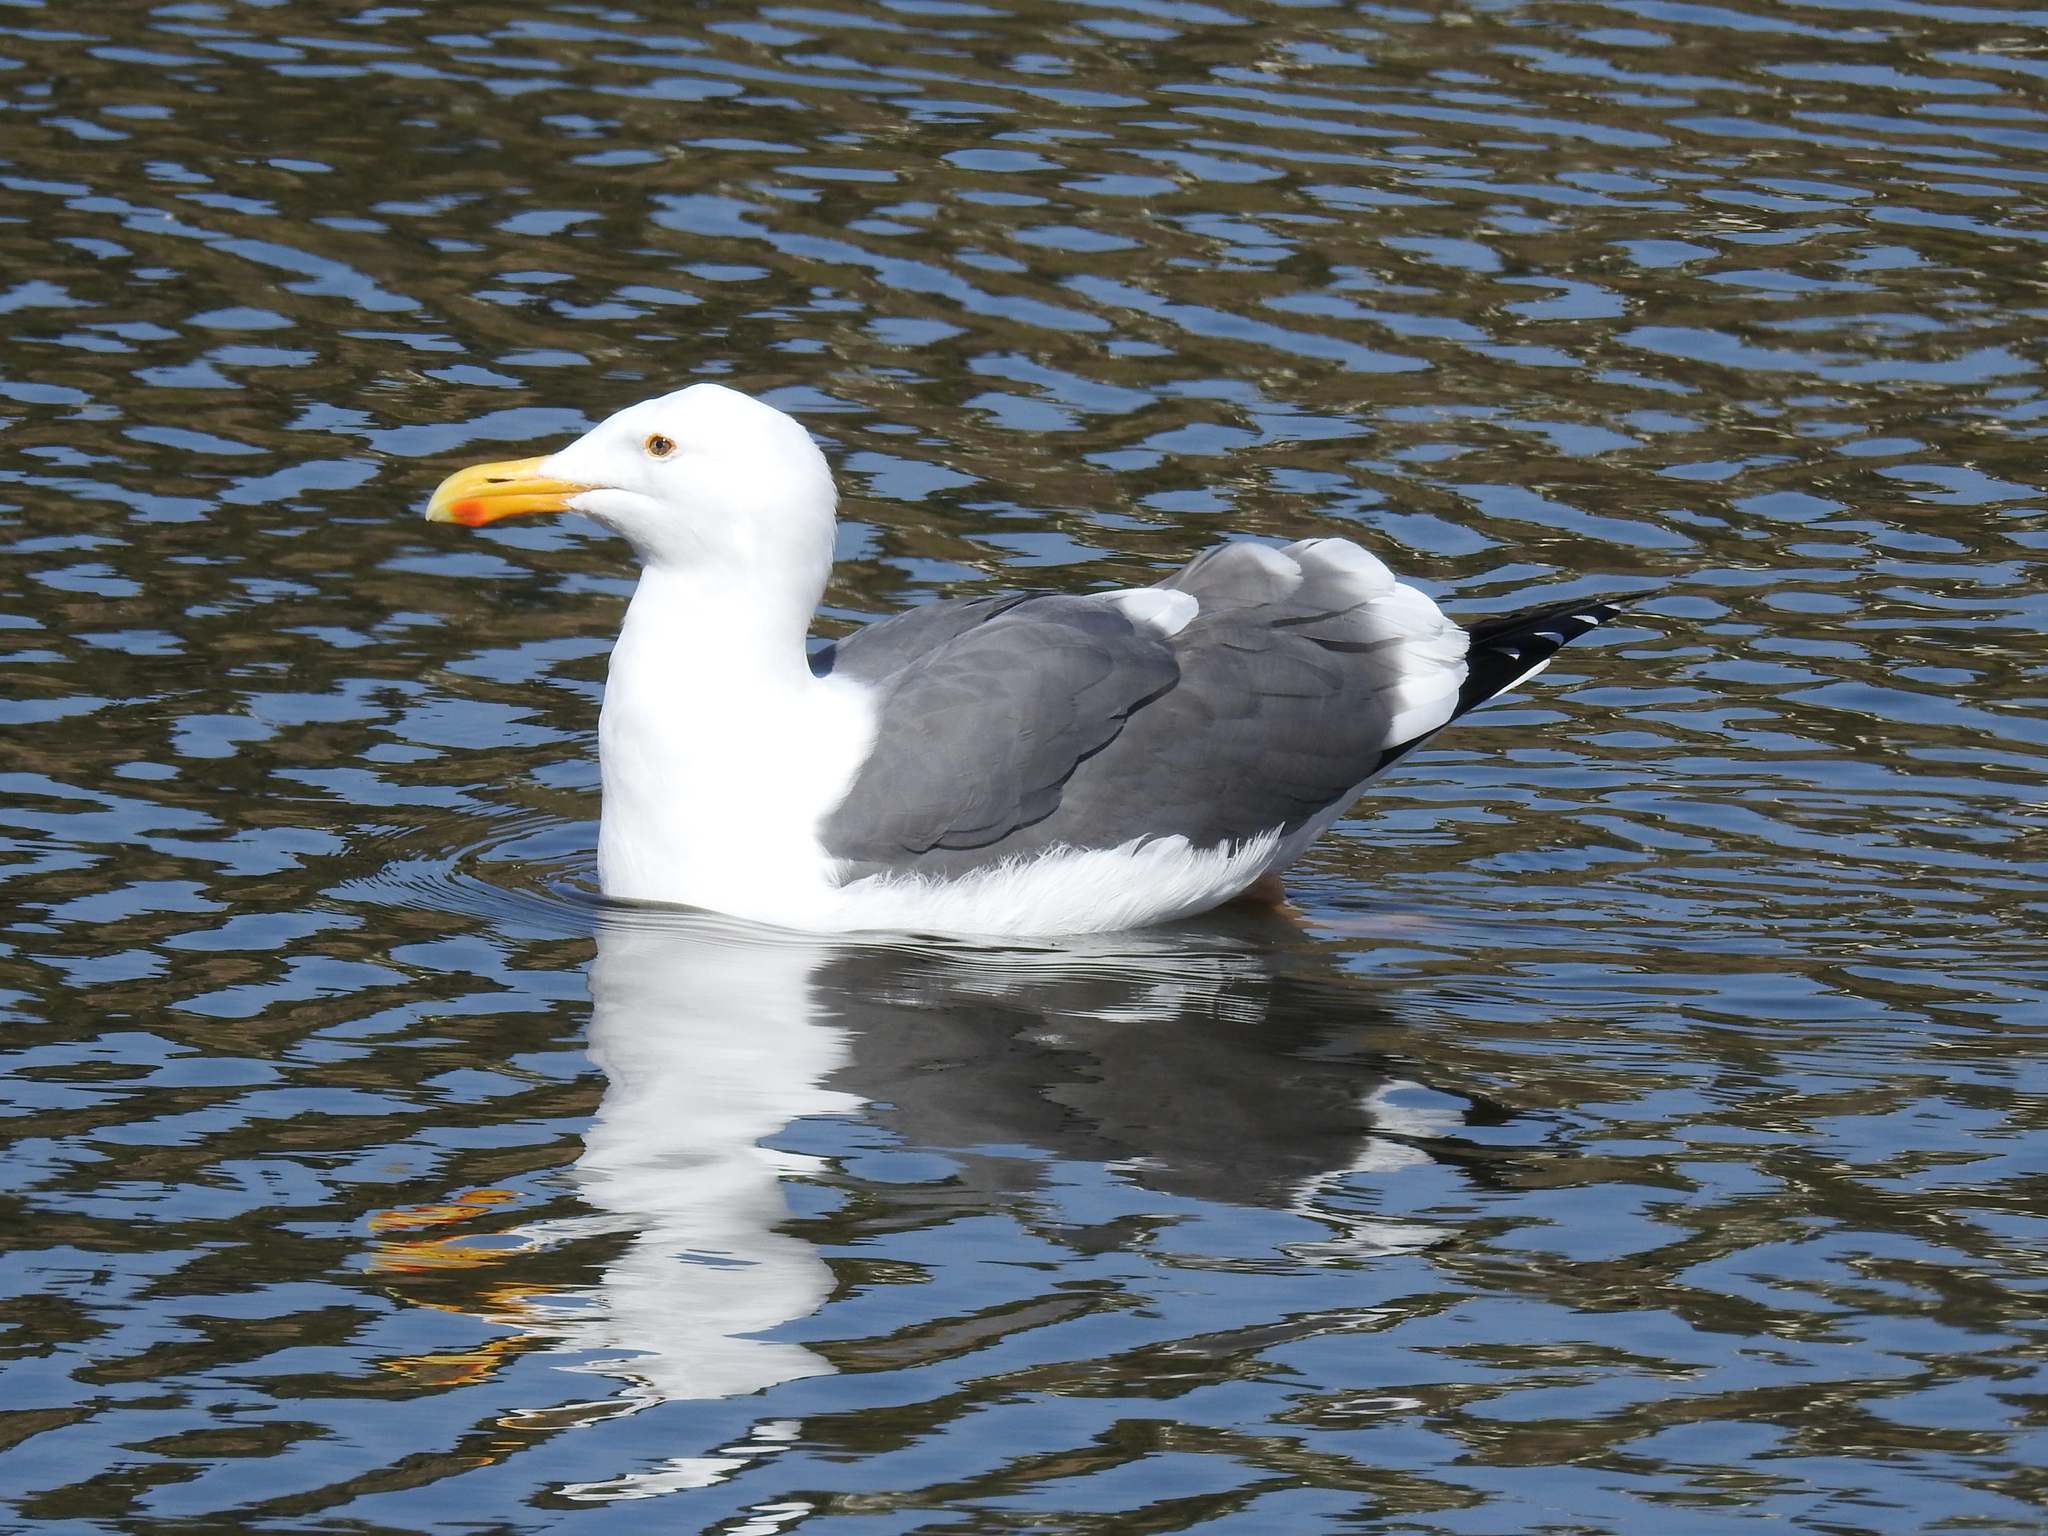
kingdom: Animalia
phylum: Chordata
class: Aves
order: Charadriiformes
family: Laridae
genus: Larus
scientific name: Larus occidentalis
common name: Western gull
